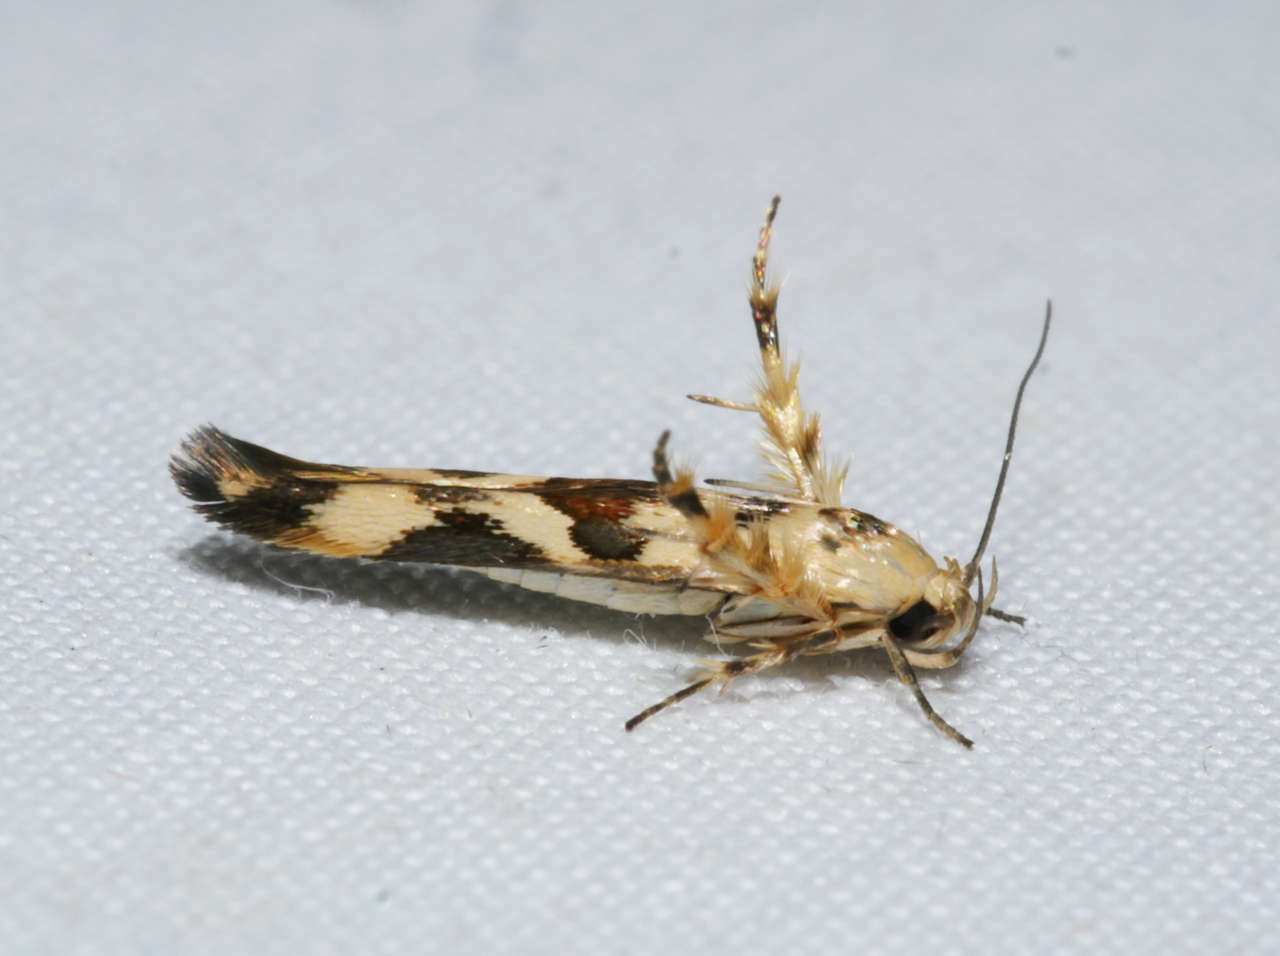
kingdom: Animalia
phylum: Arthropoda
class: Insecta
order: Lepidoptera
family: Stathmopodidae
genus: Stathmopoda
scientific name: Stathmopoda melanochra
